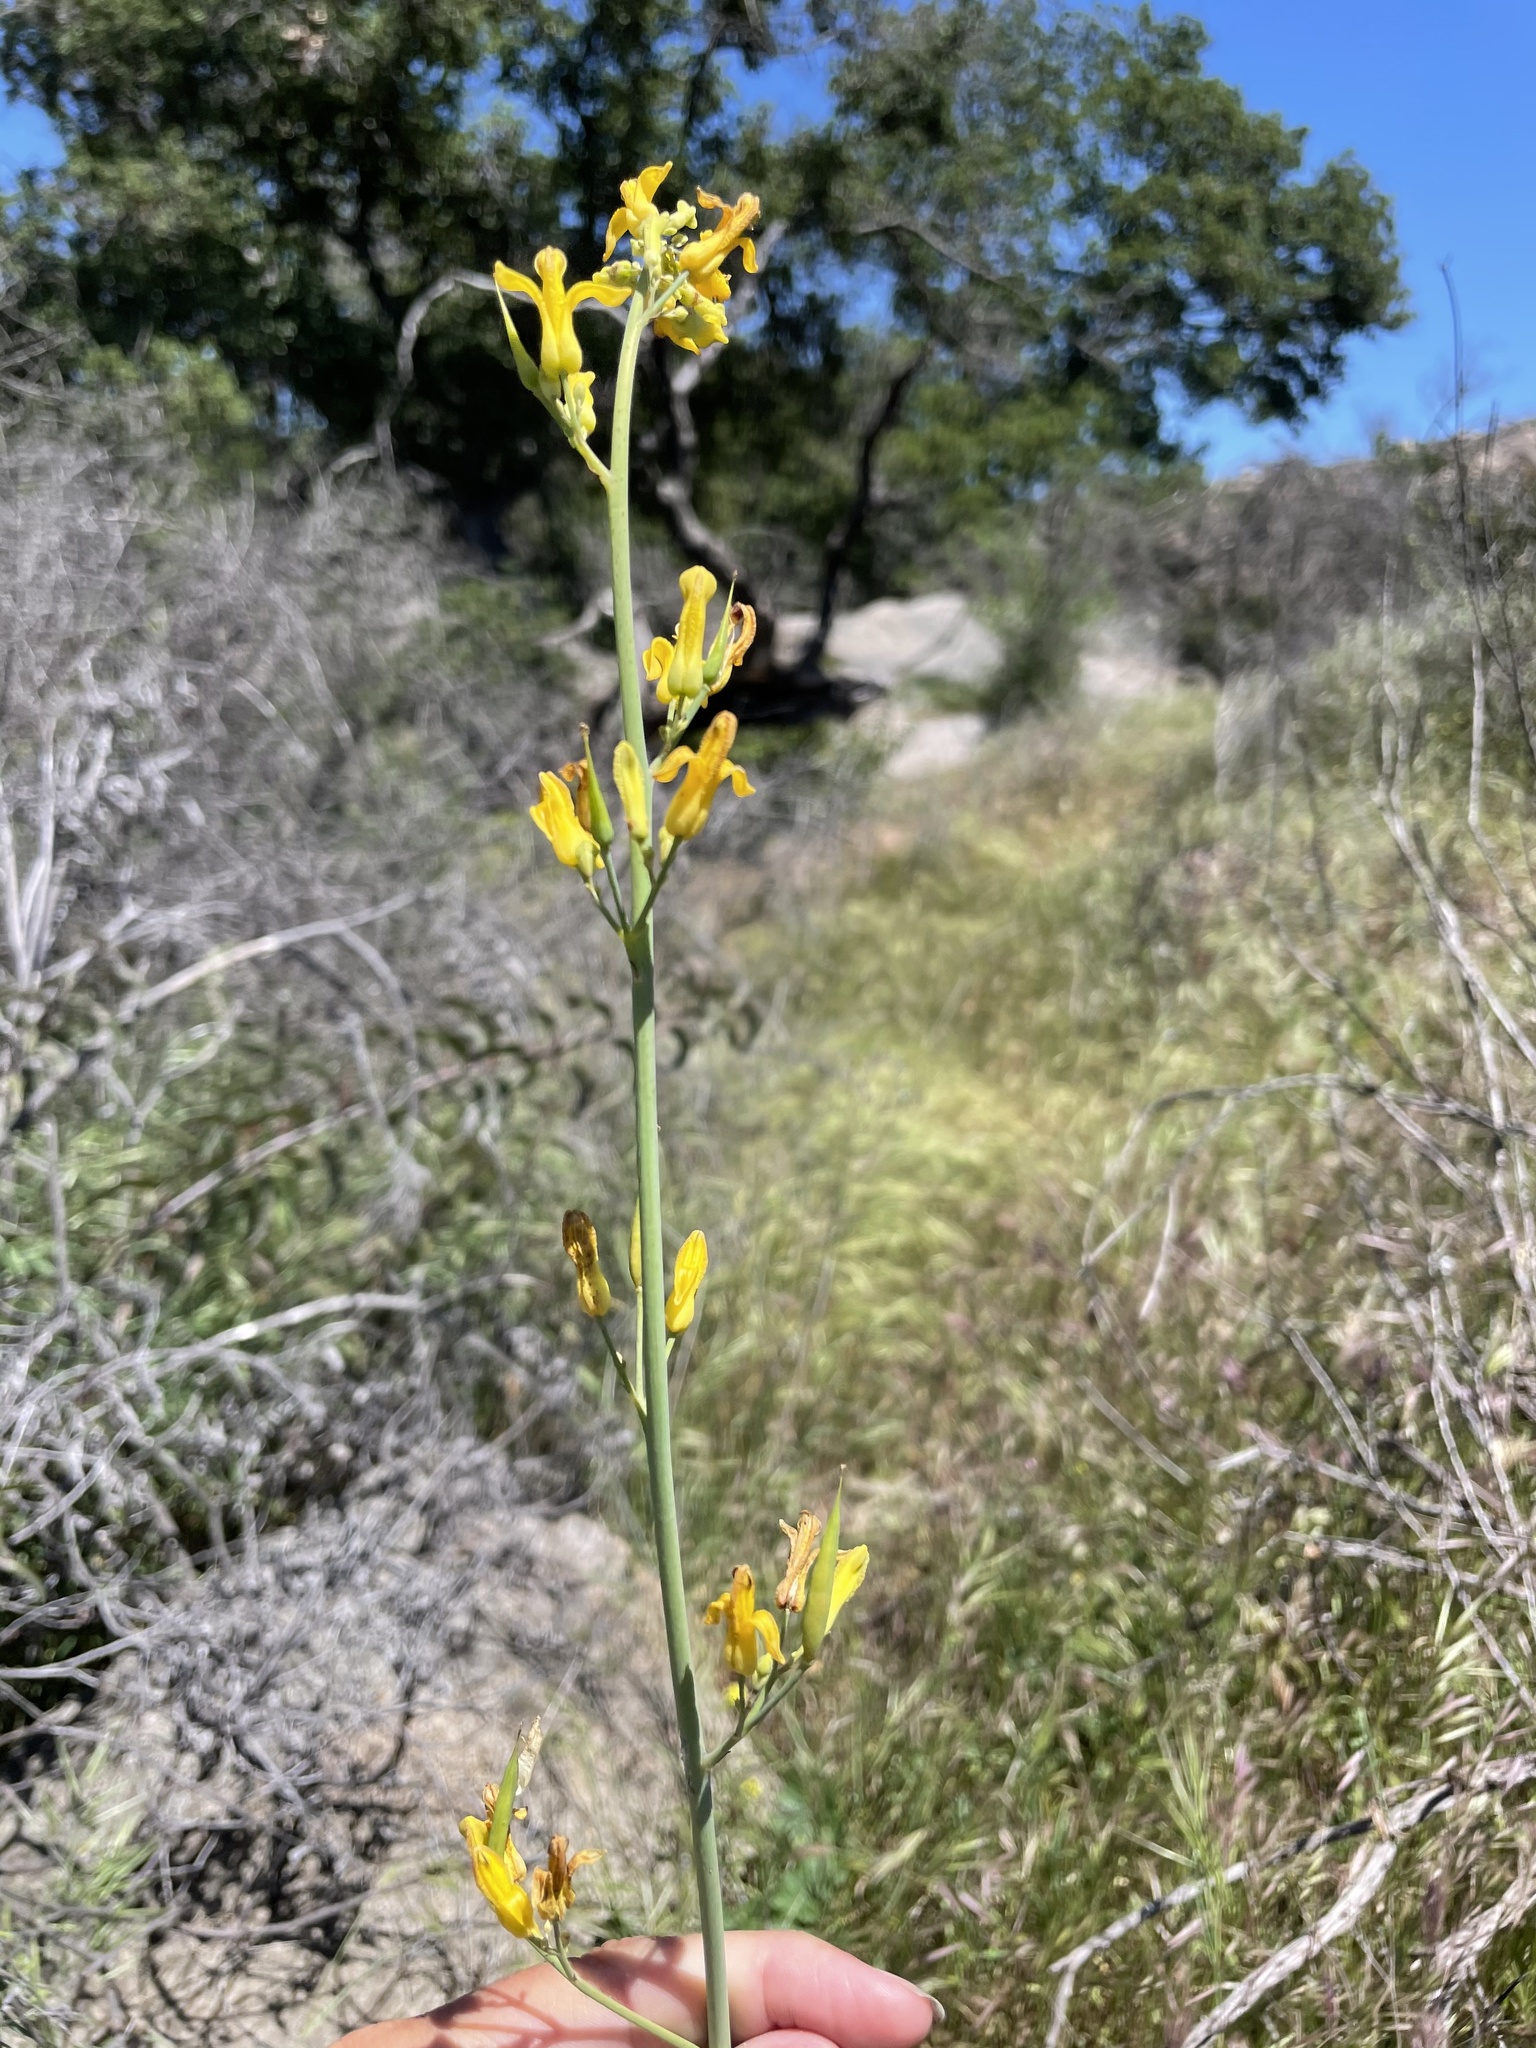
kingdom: Plantae
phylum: Tracheophyta
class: Magnoliopsida
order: Ranunculales
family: Papaveraceae
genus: Ehrendorferia
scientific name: Ehrendorferia chrysantha
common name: Golden eardrops
